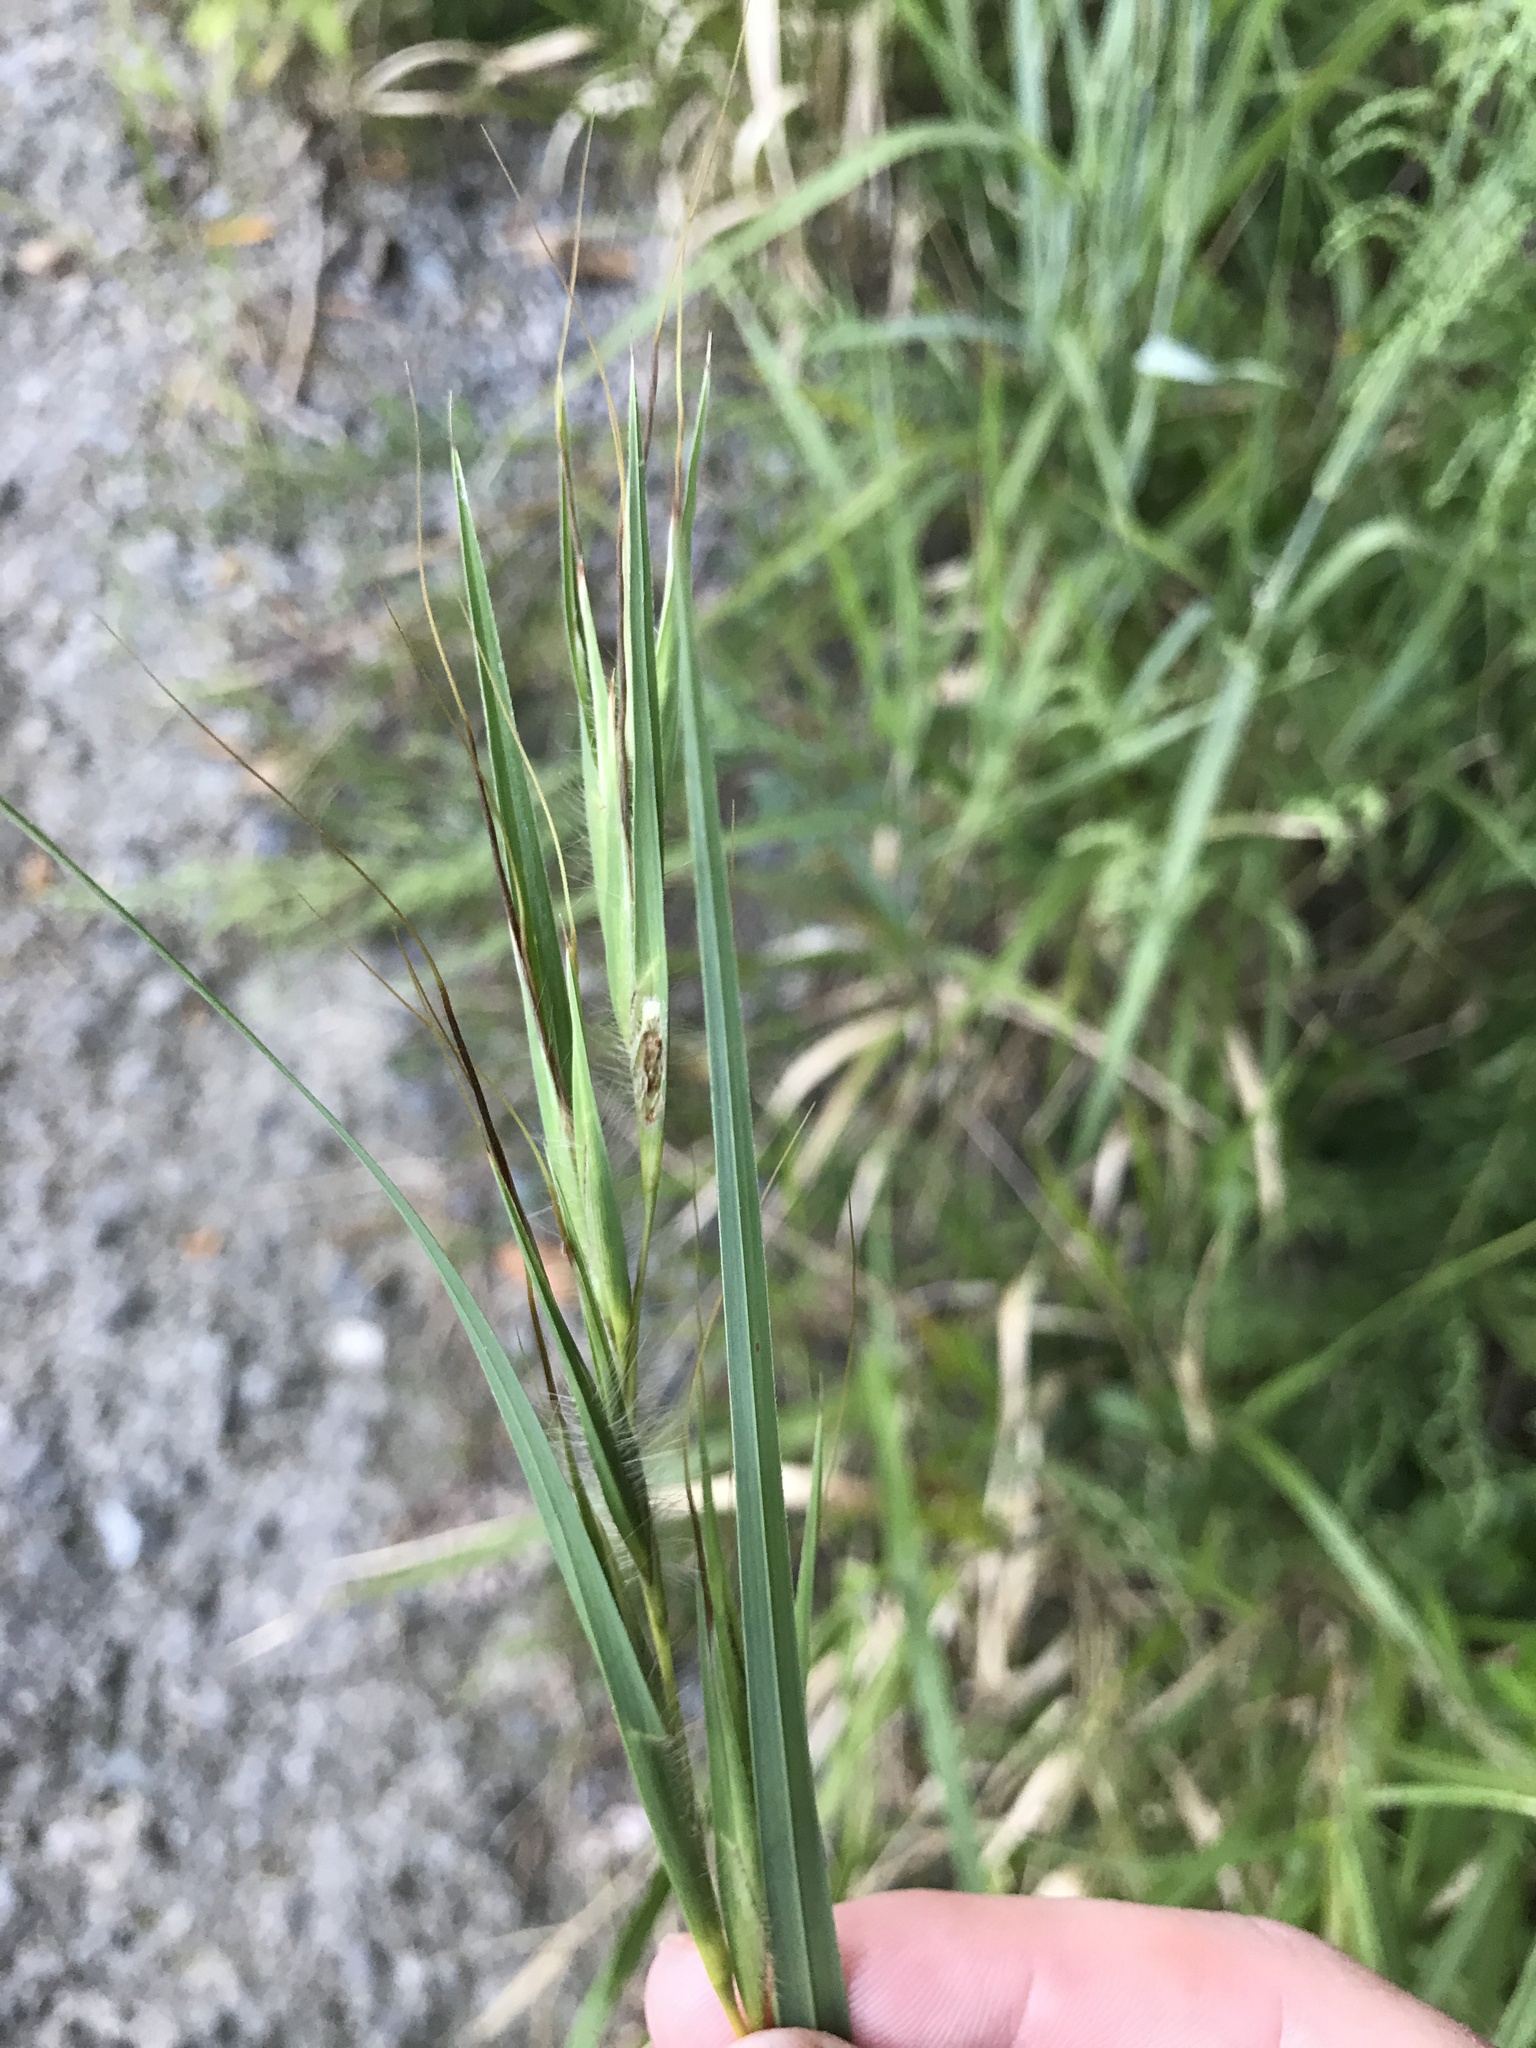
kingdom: Plantae
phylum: Tracheophyta
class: Liliopsida
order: Poales
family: Poaceae
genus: Themeda
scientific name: Themeda triandra
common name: Kangaroo grass
